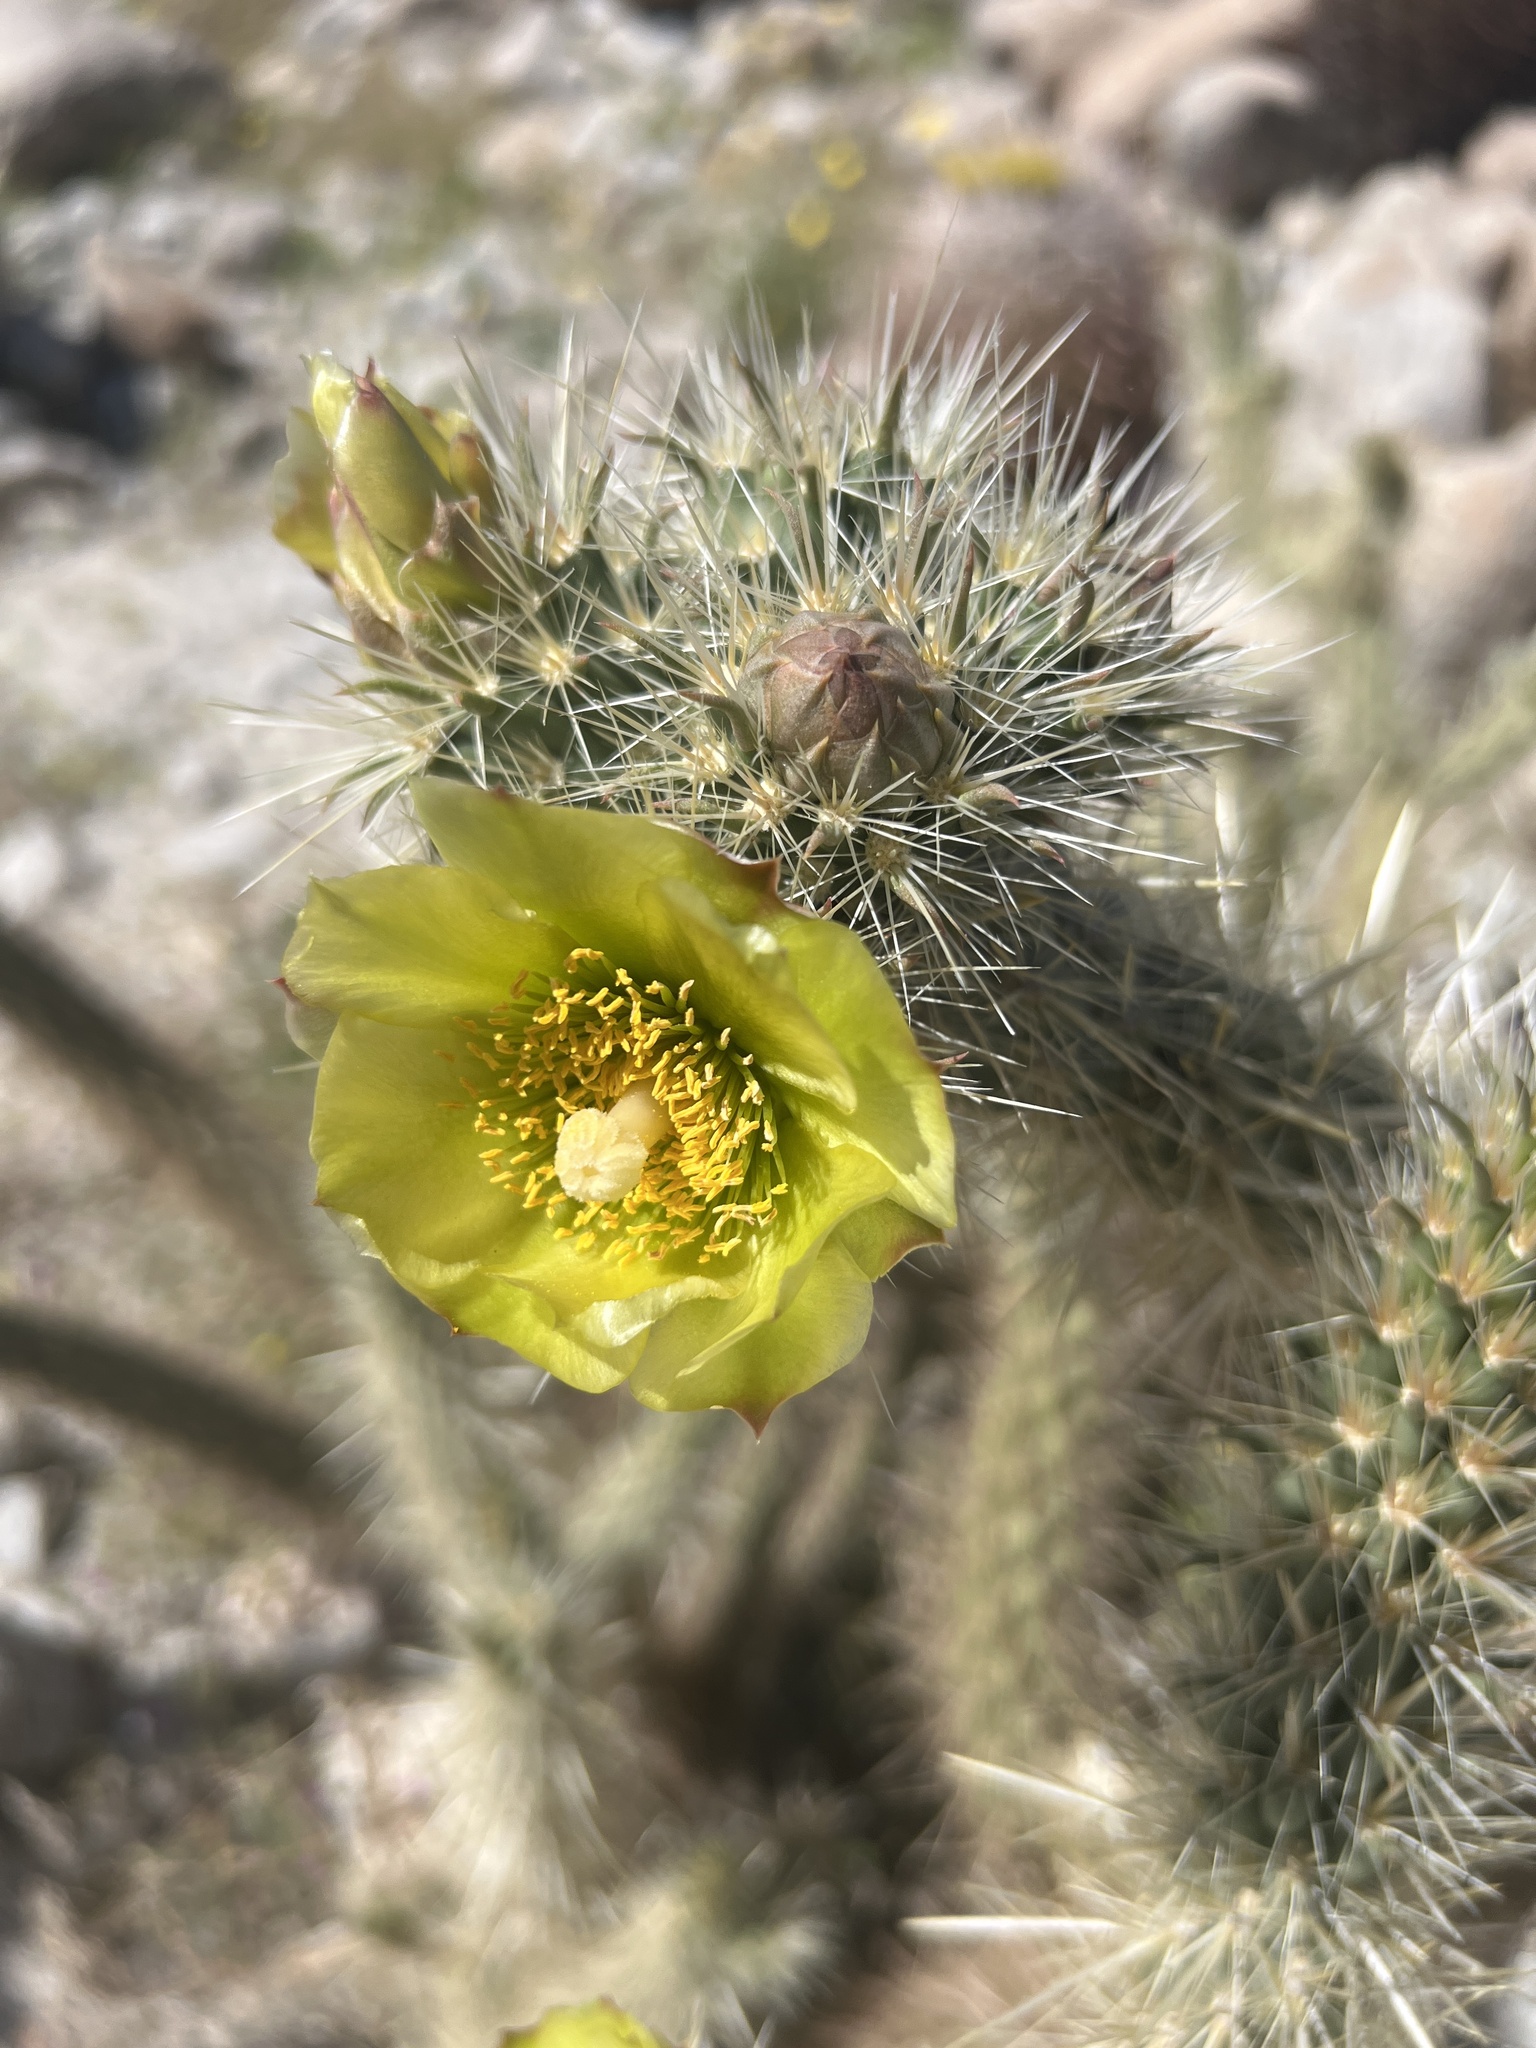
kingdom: Plantae
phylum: Tracheophyta
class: Magnoliopsida
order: Caryophyllales
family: Cactaceae
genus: Cylindropuntia
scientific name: Cylindropuntia ganderi
